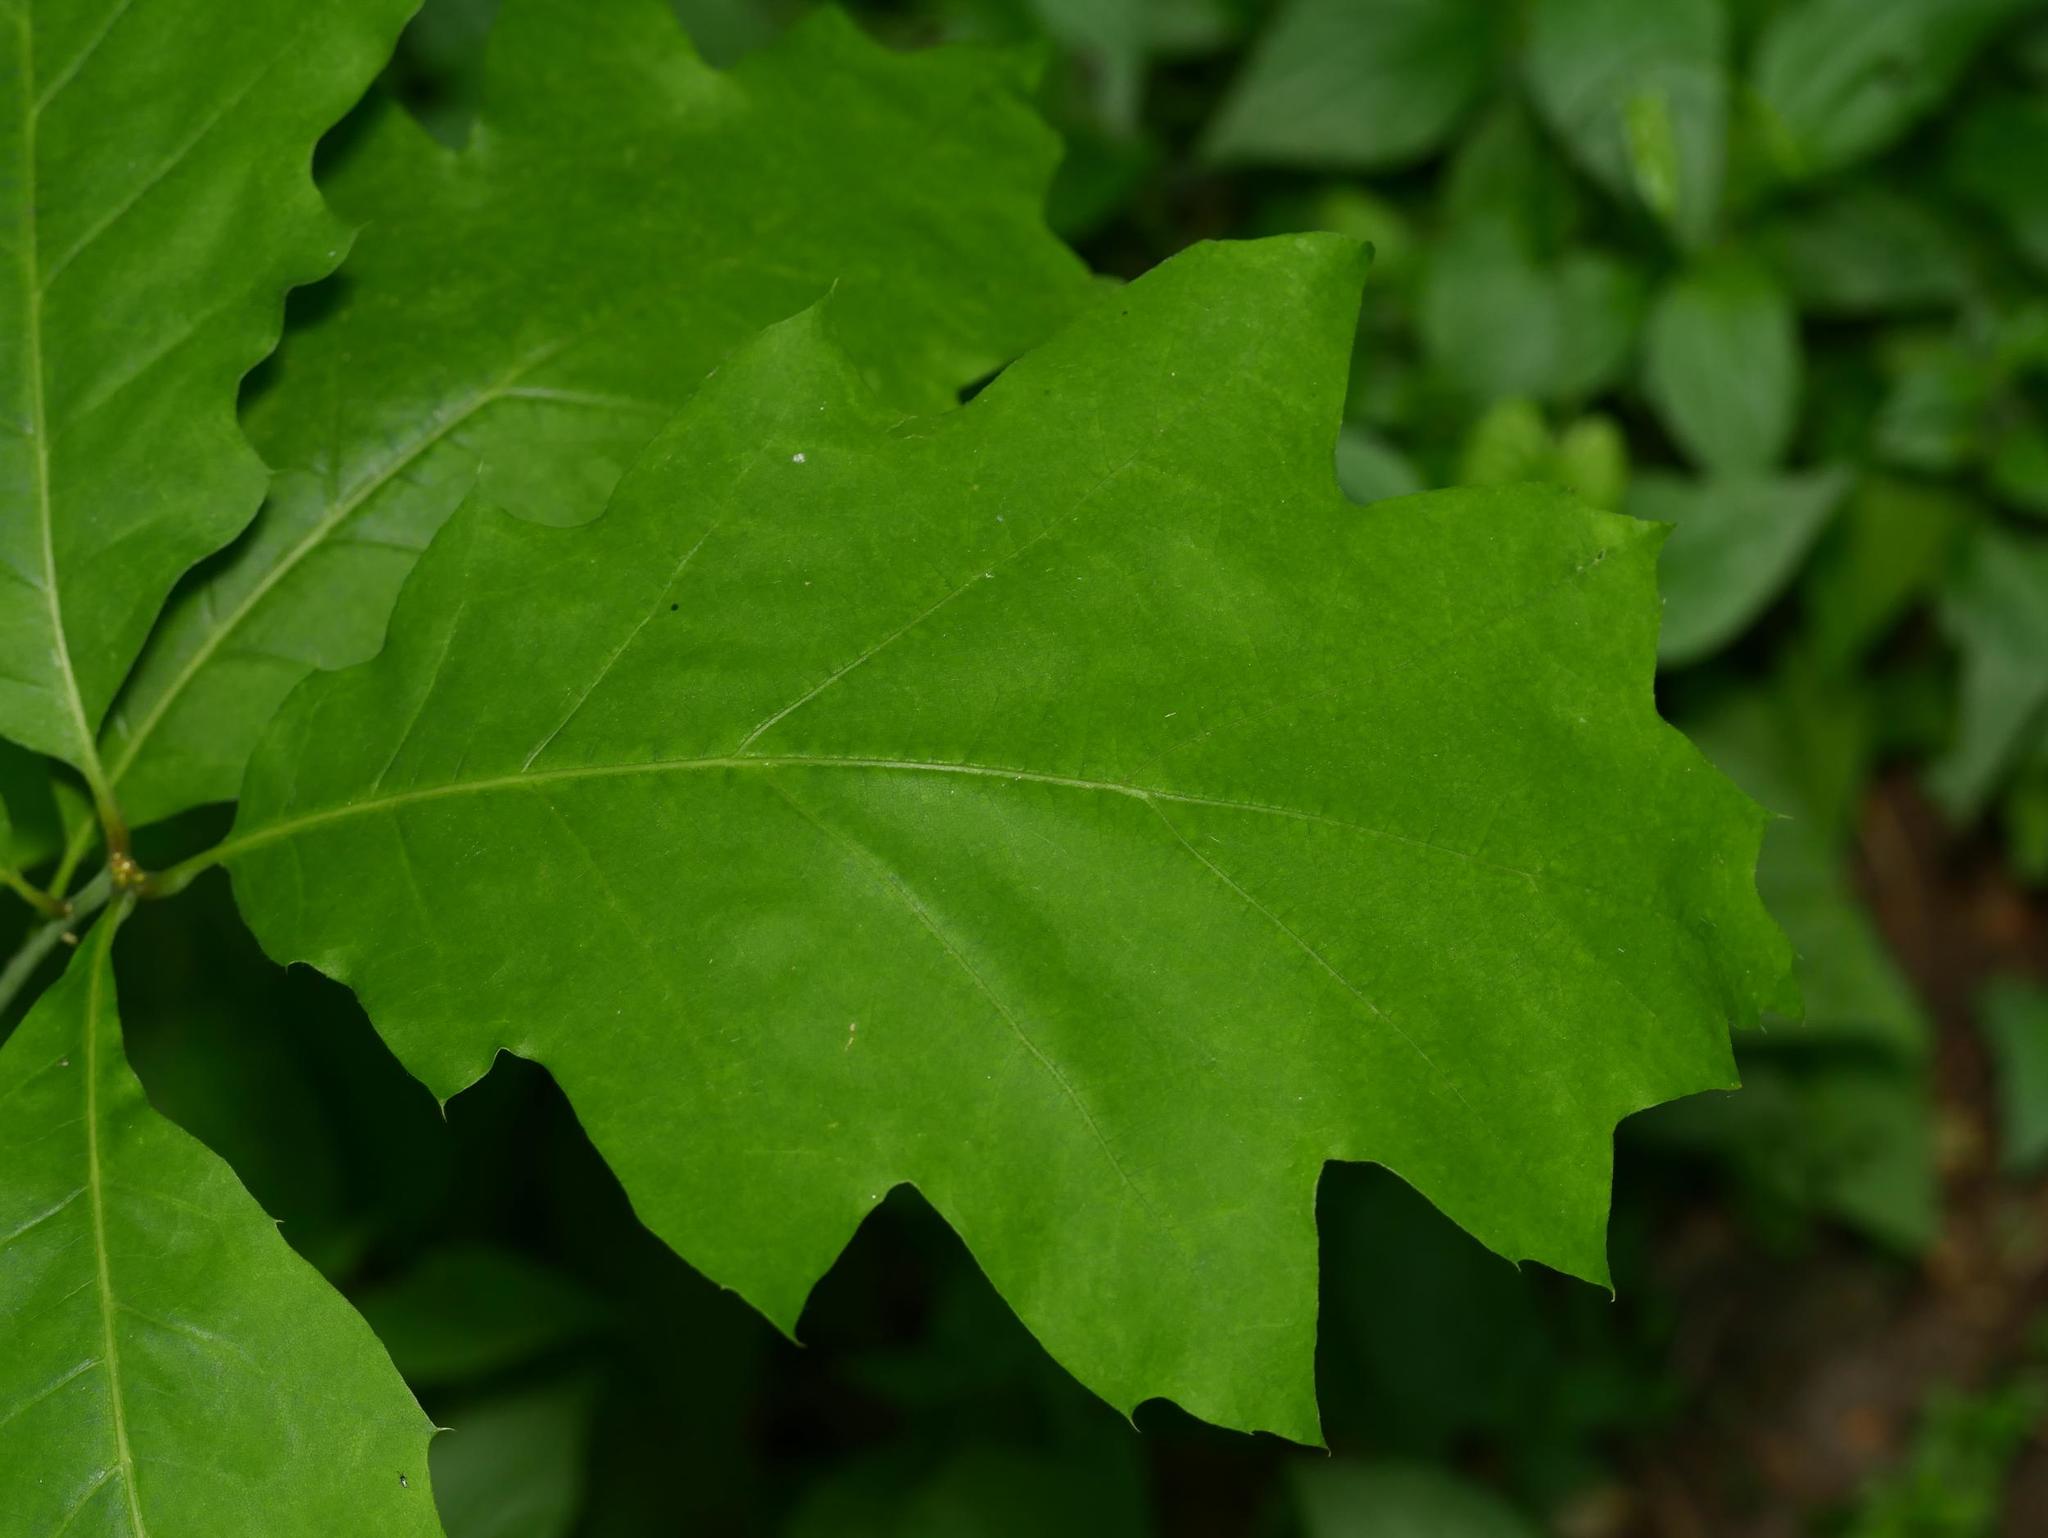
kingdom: Plantae
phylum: Tracheophyta
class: Magnoliopsida
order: Fagales
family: Fagaceae
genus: Quercus
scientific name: Quercus rubra
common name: Red oak
